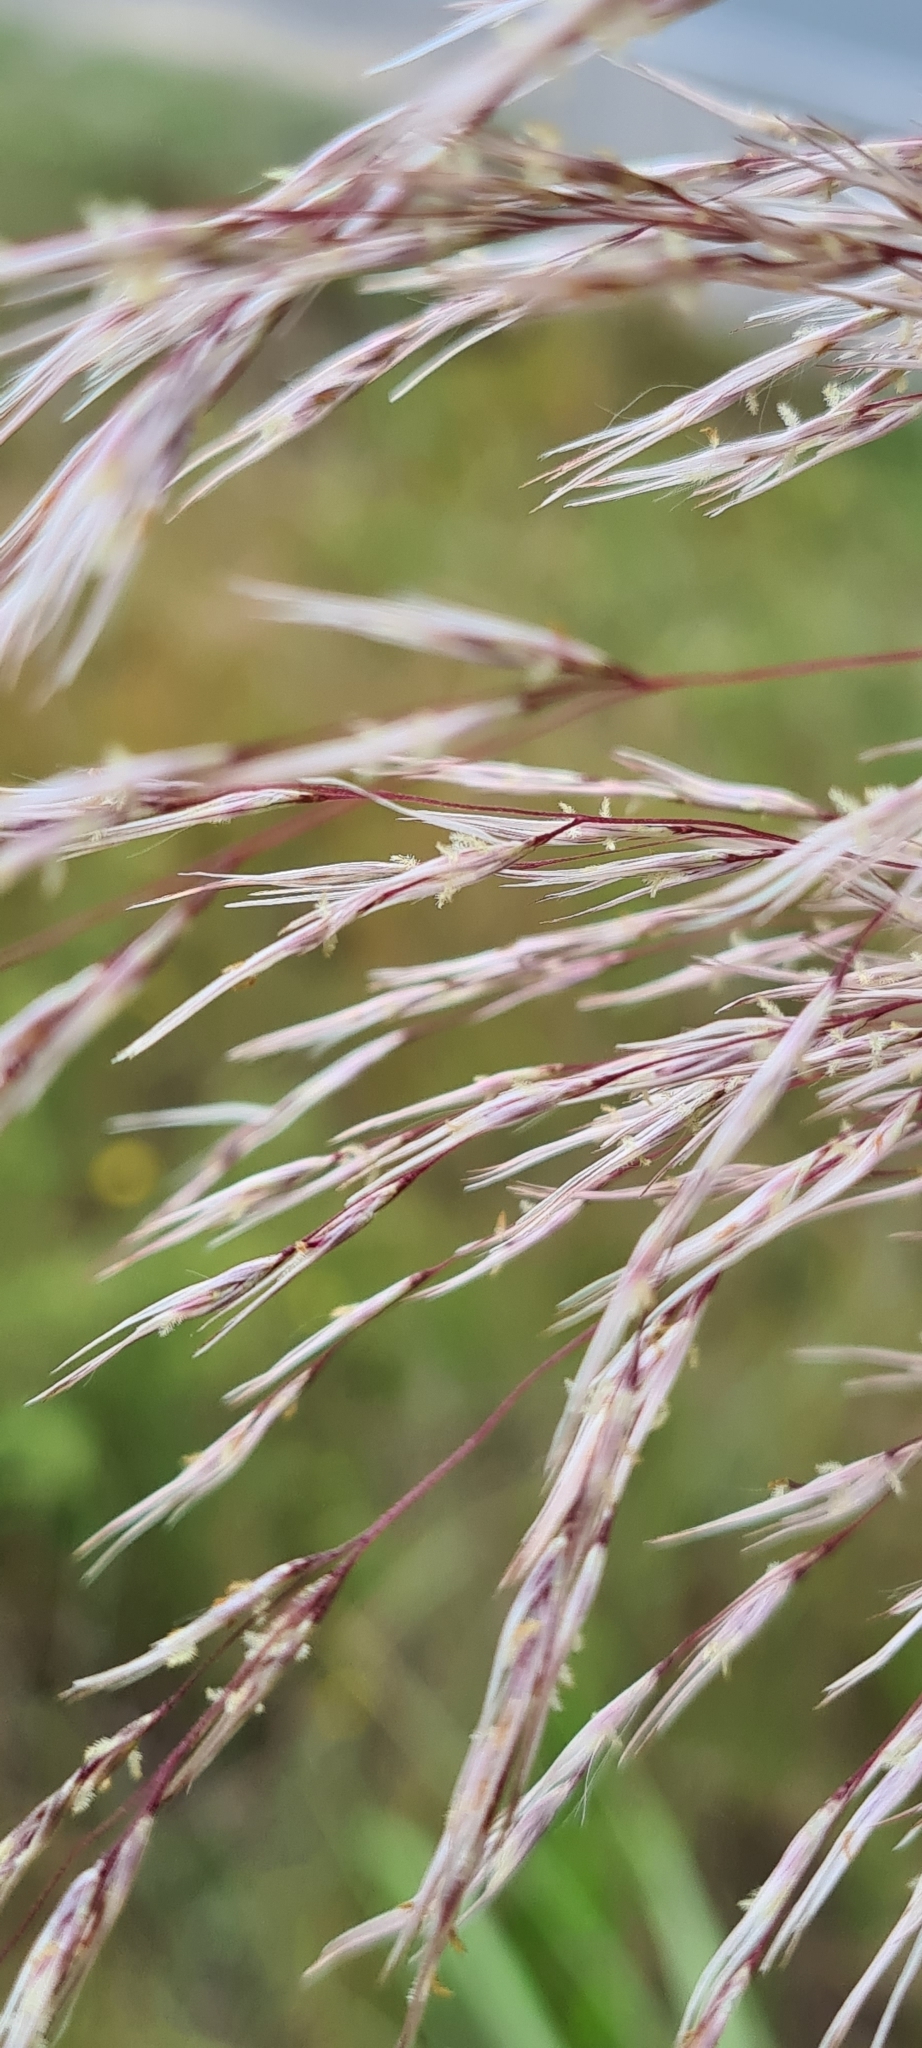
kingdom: Plantae
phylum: Tracheophyta
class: Liliopsida
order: Poales
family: Poaceae
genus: Cortaderia
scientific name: Cortaderia jubata
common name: Purple pampas grass
